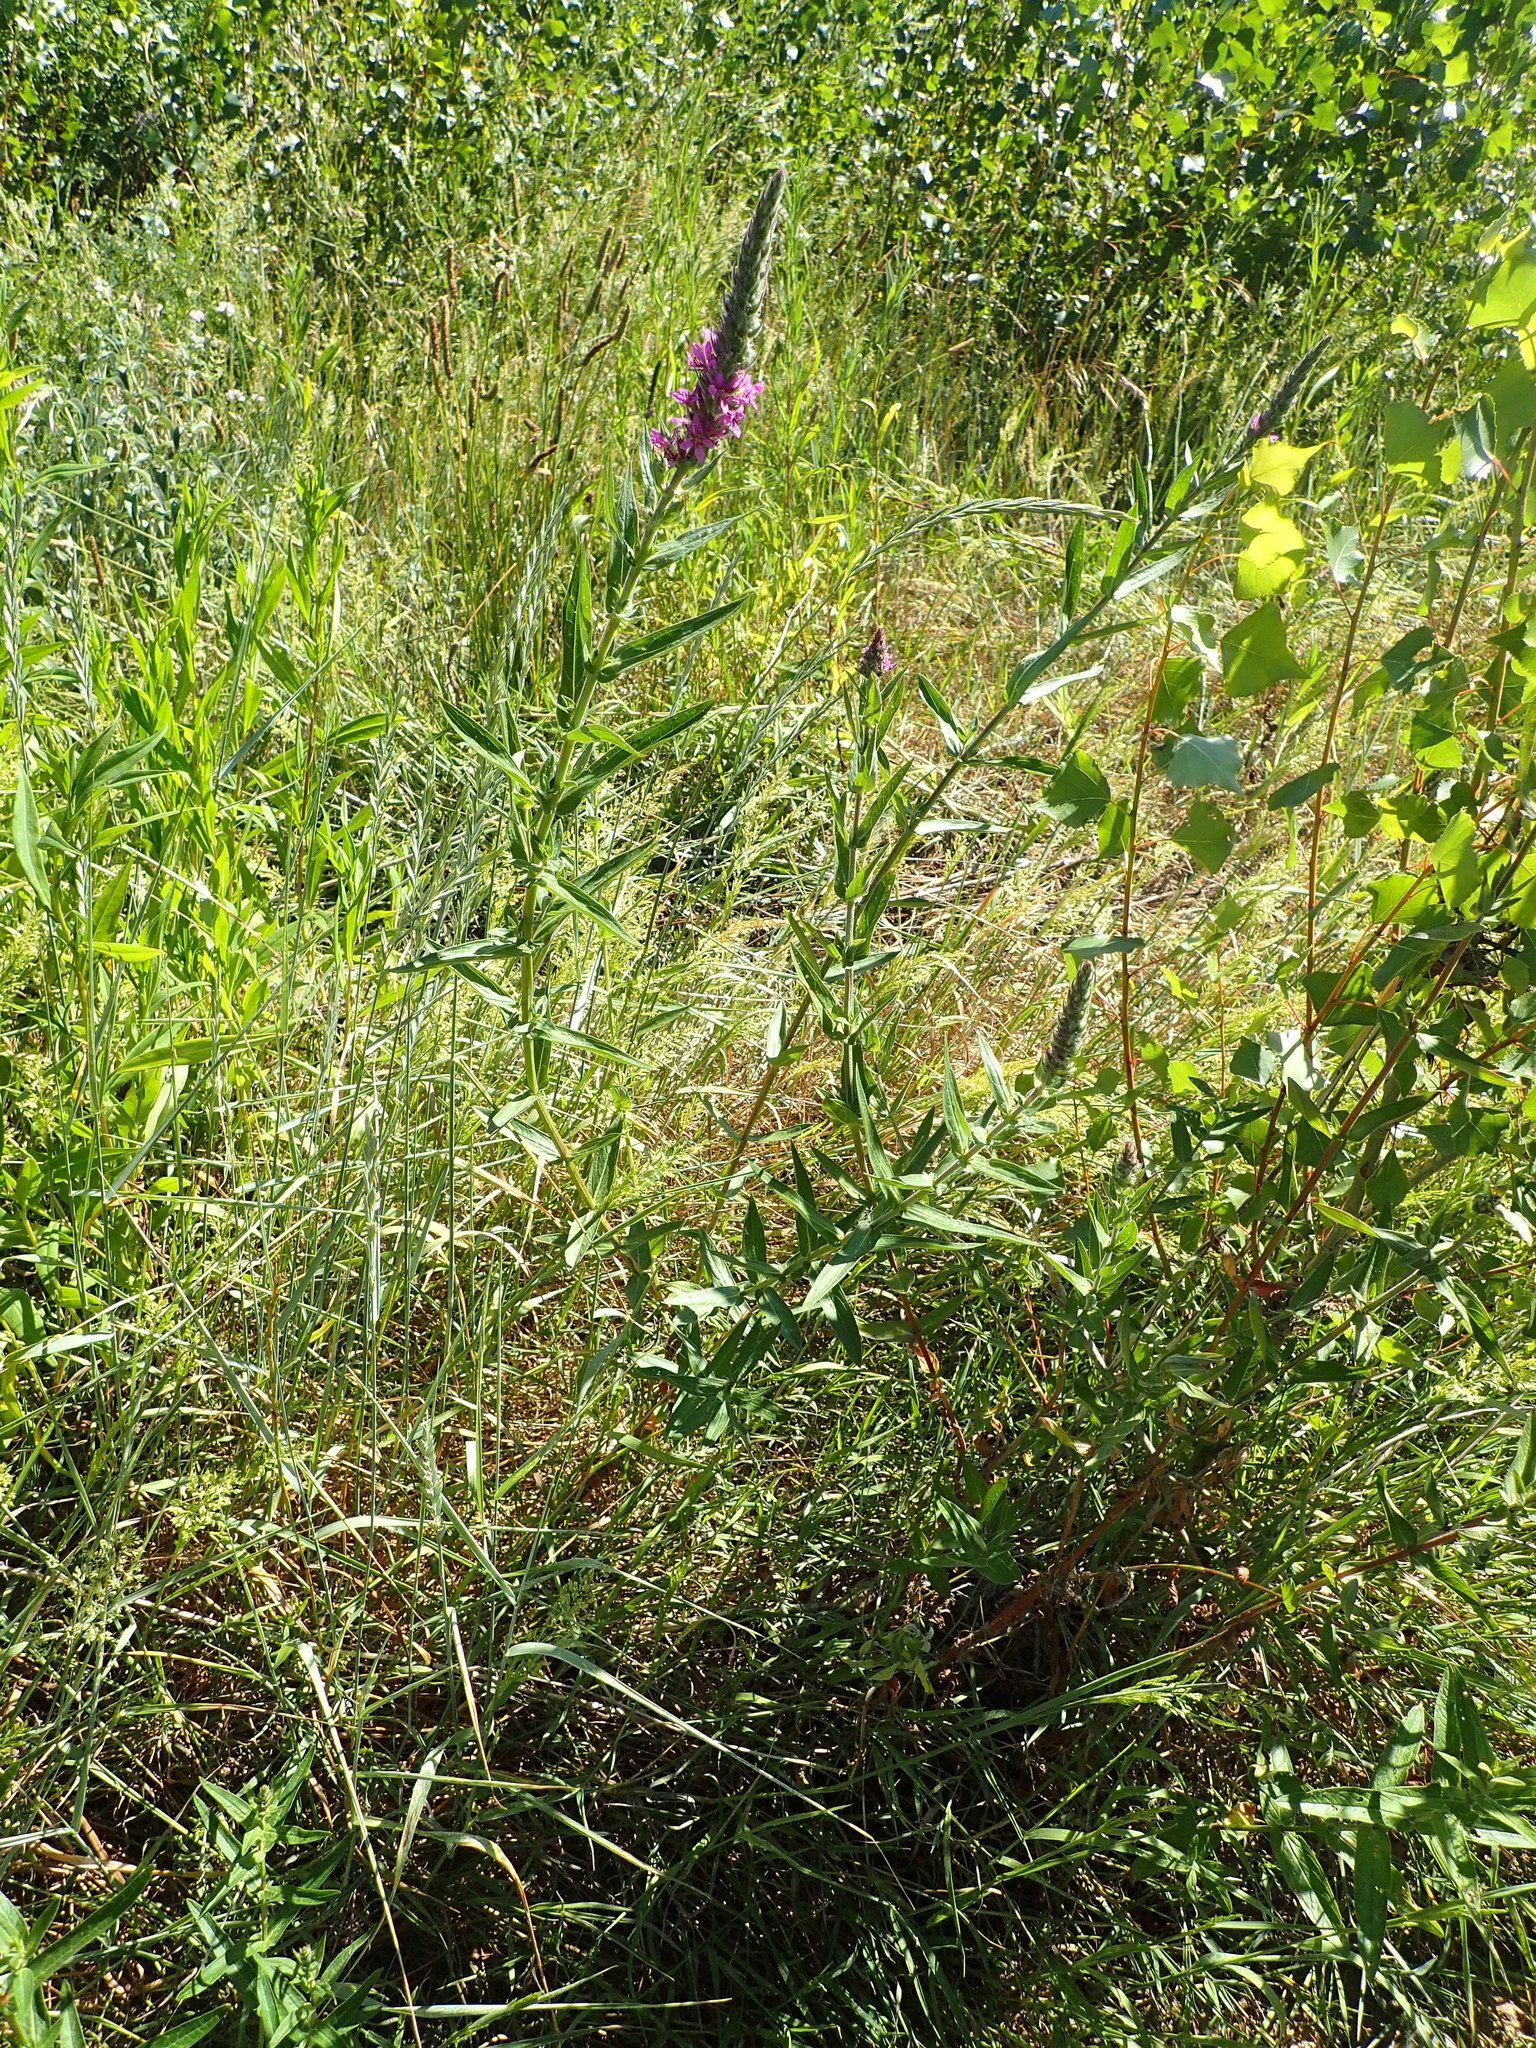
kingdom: Plantae
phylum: Tracheophyta
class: Magnoliopsida
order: Myrtales
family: Lythraceae
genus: Lythrum
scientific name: Lythrum salicaria
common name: Purple loosestrife
